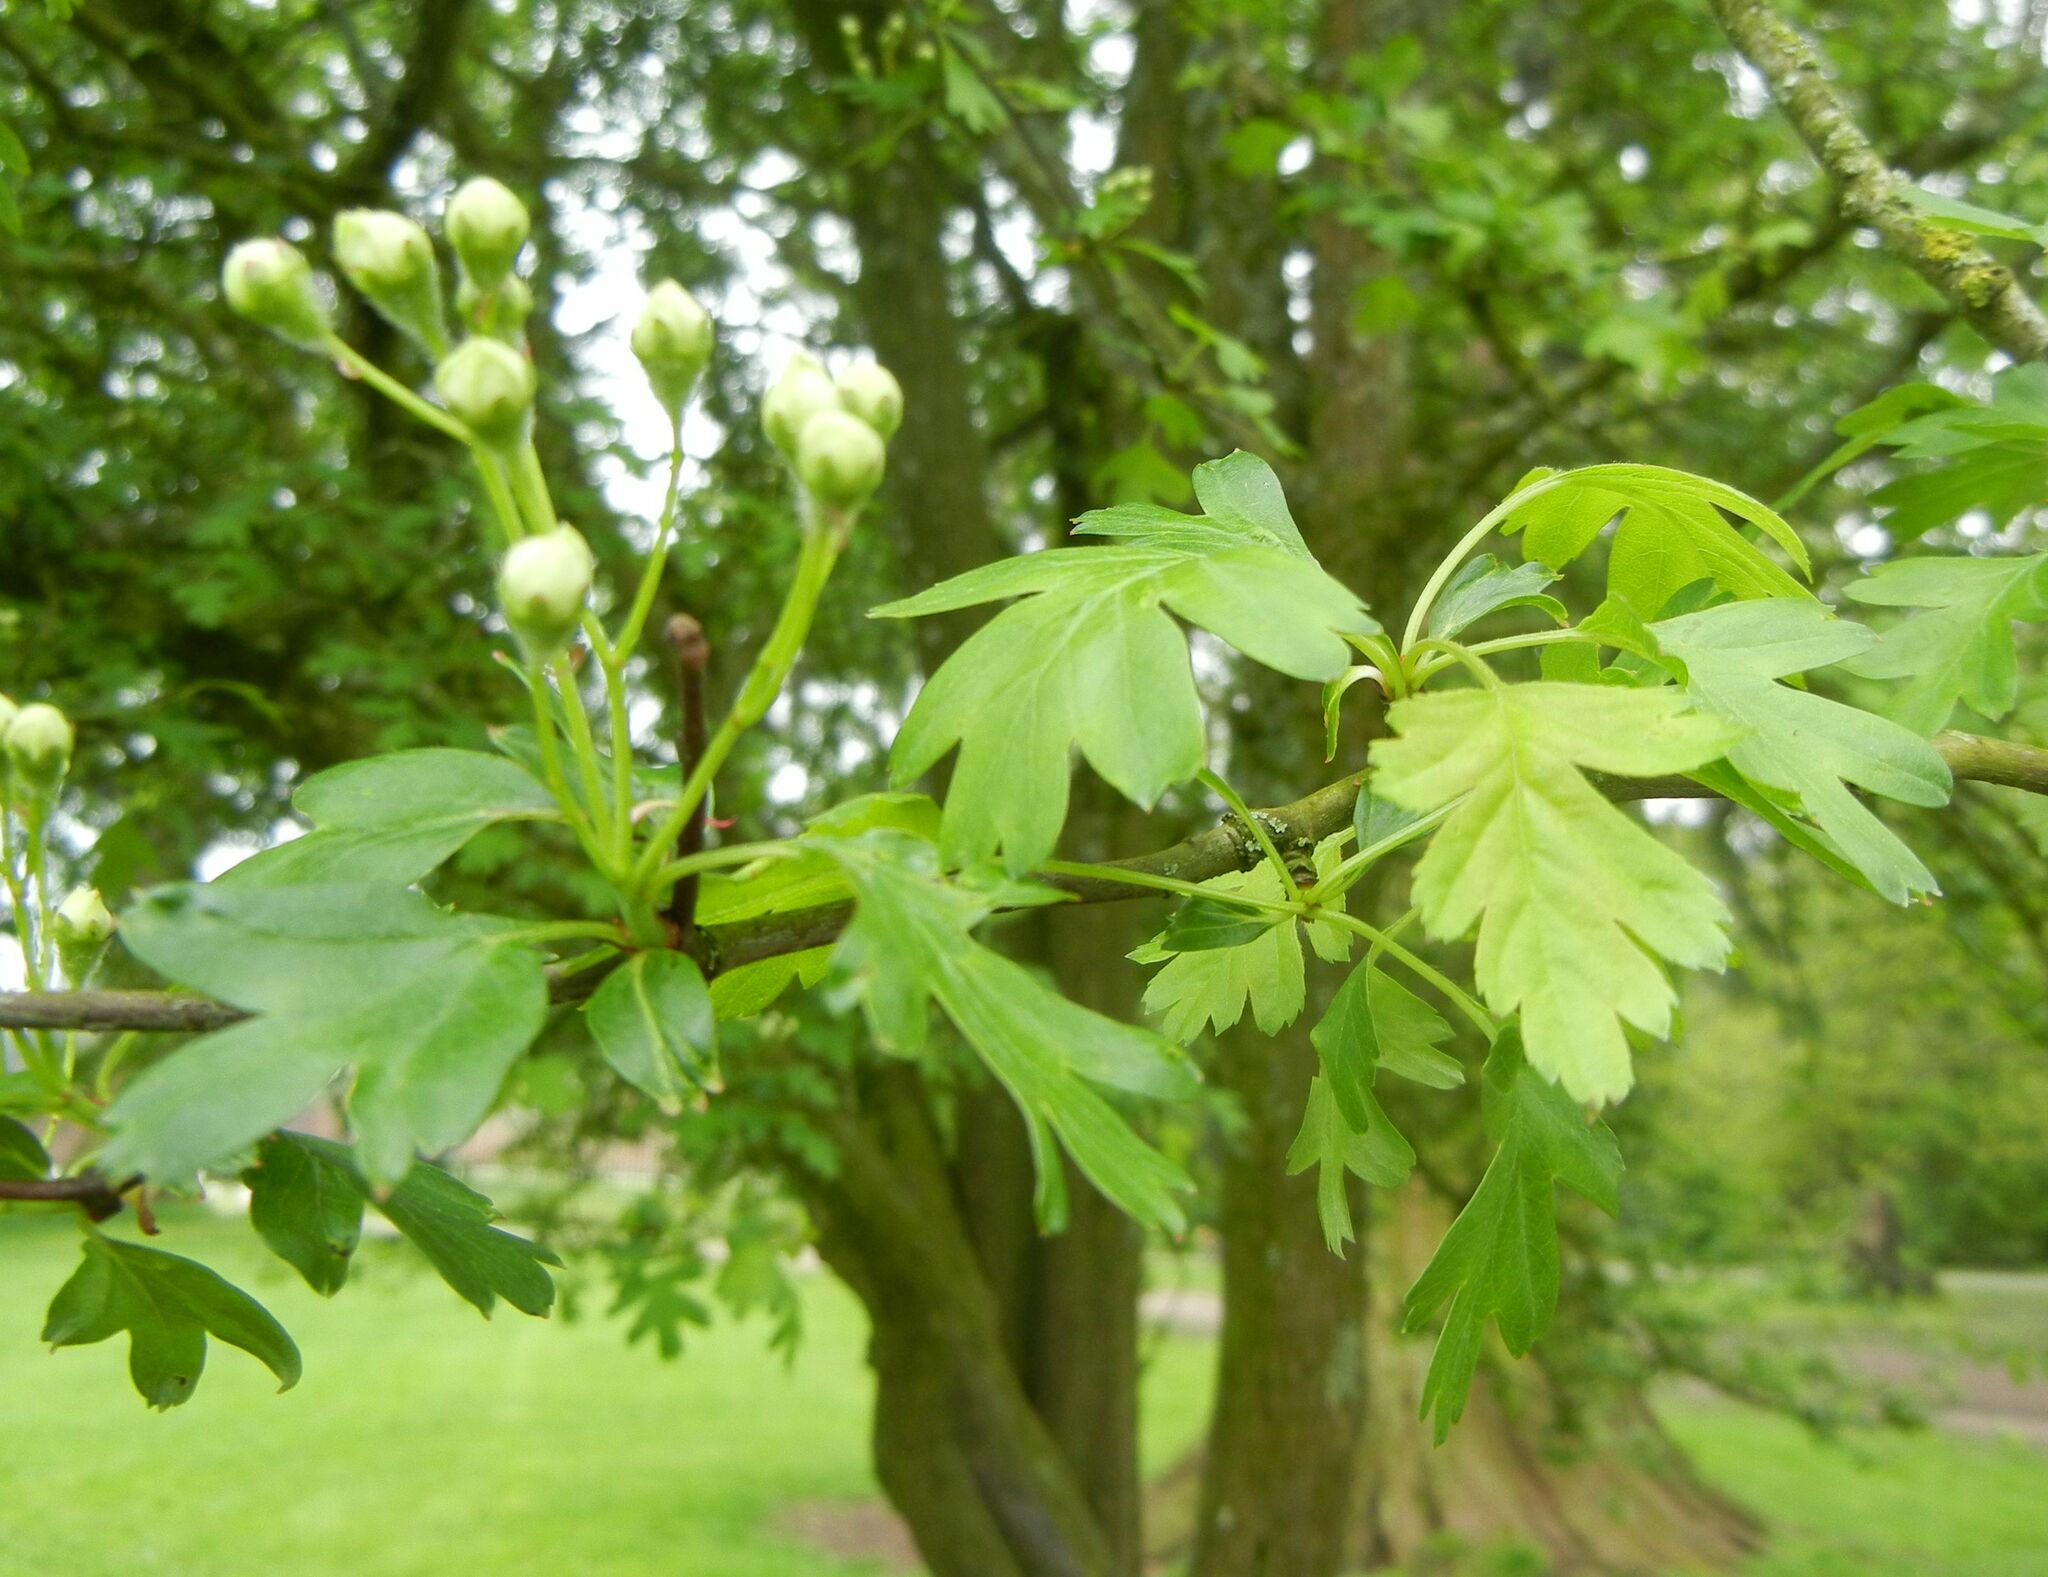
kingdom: Plantae
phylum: Tracheophyta
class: Magnoliopsida
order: Rosales
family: Rosaceae
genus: Crataegus
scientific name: Crataegus monogyna
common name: Hawthorn
